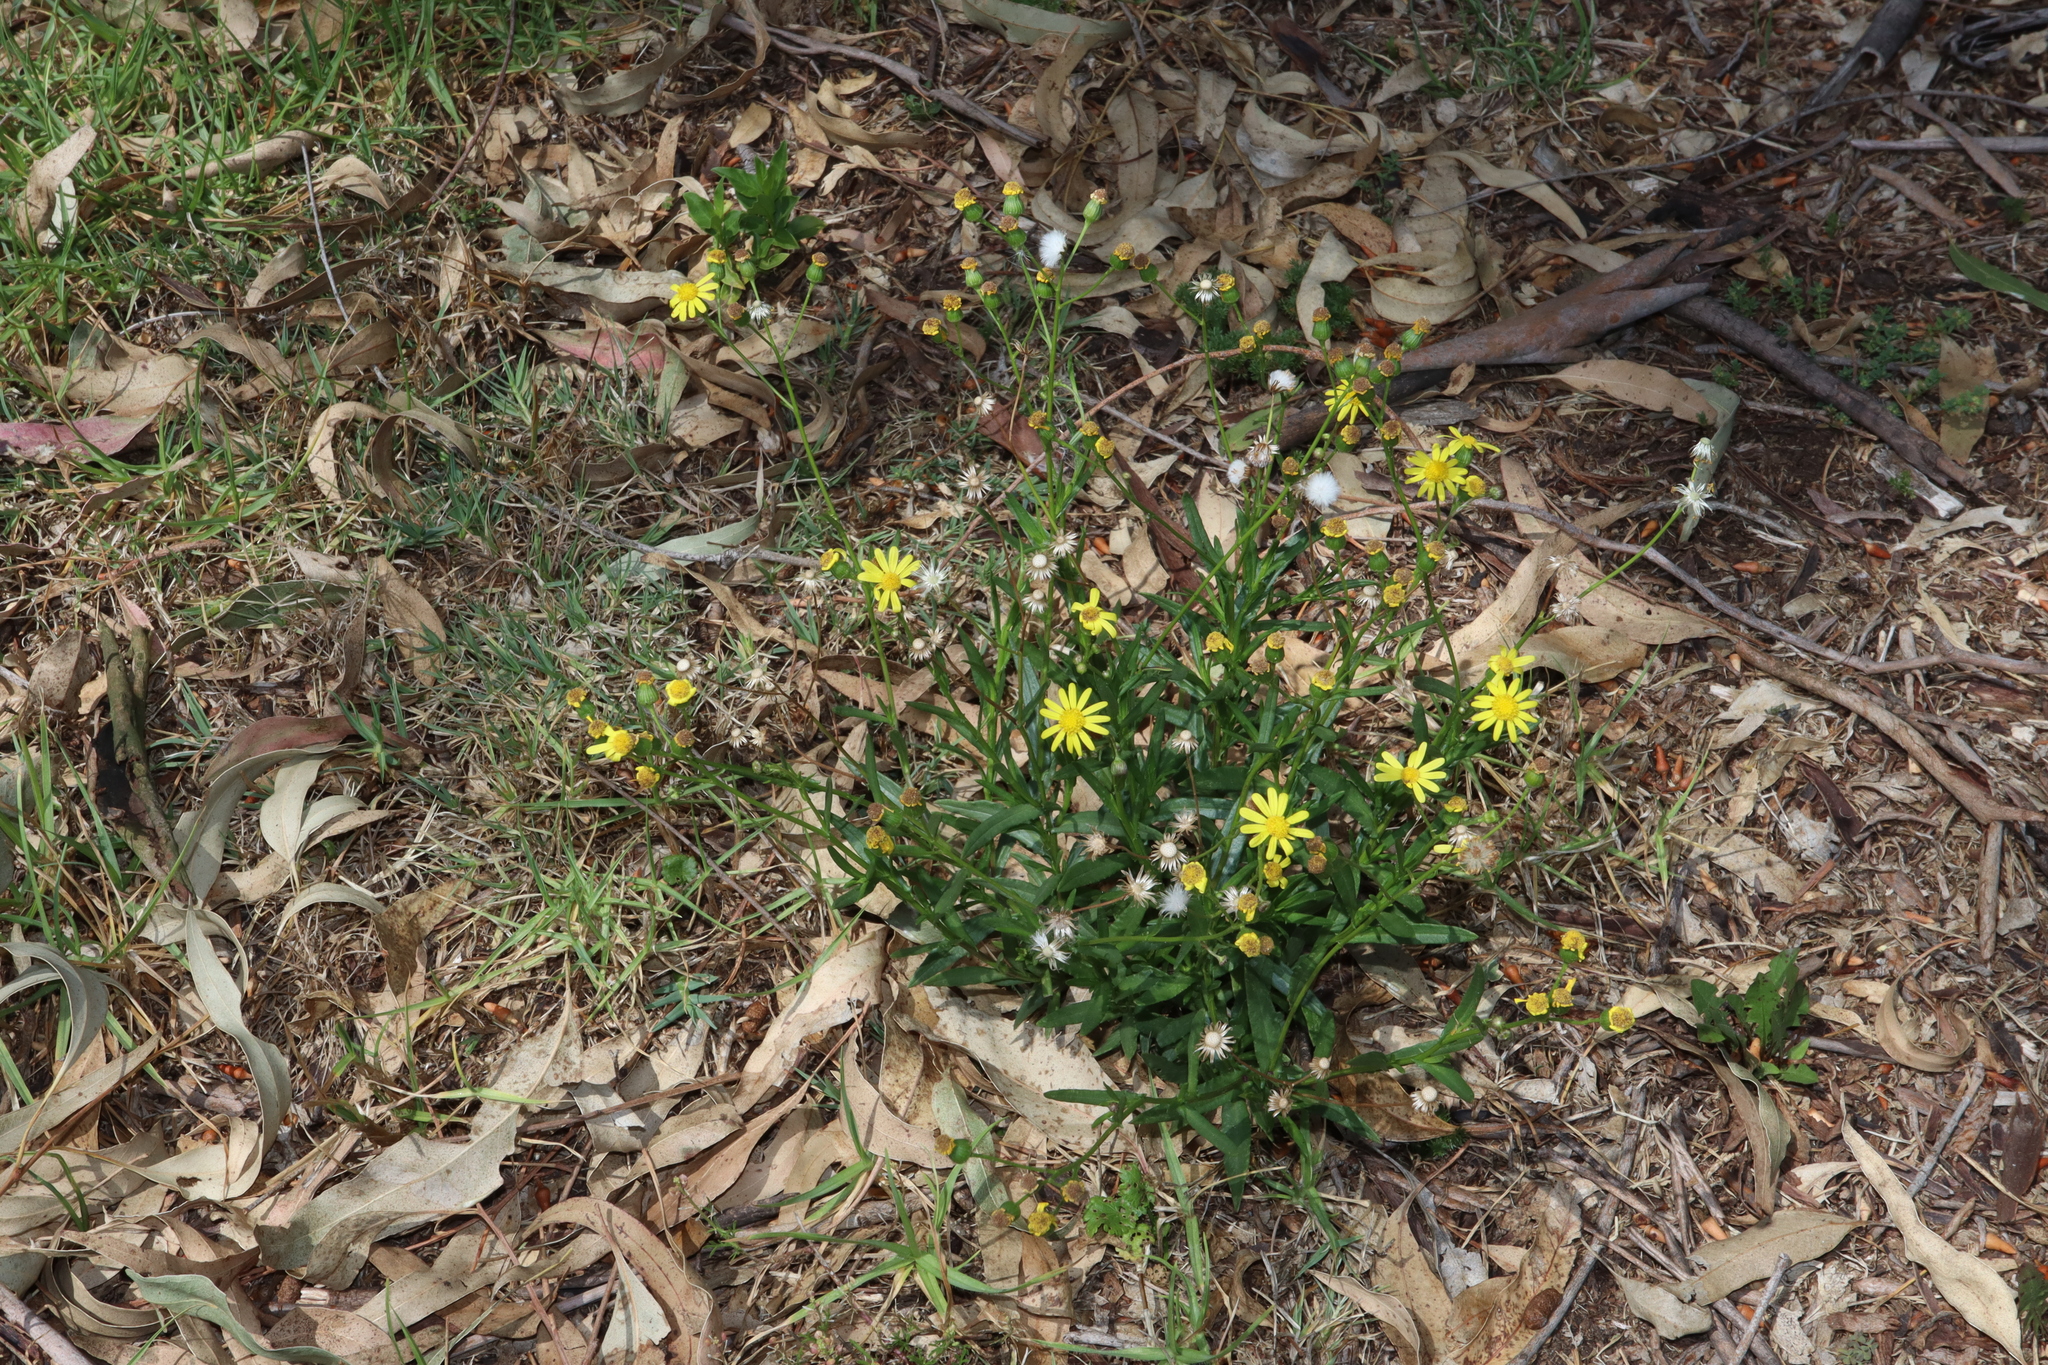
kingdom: Plantae
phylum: Tracheophyta
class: Magnoliopsida
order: Asterales
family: Asteraceae
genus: Senecio
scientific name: Senecio madagascariensis
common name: Madagascar ragwort
